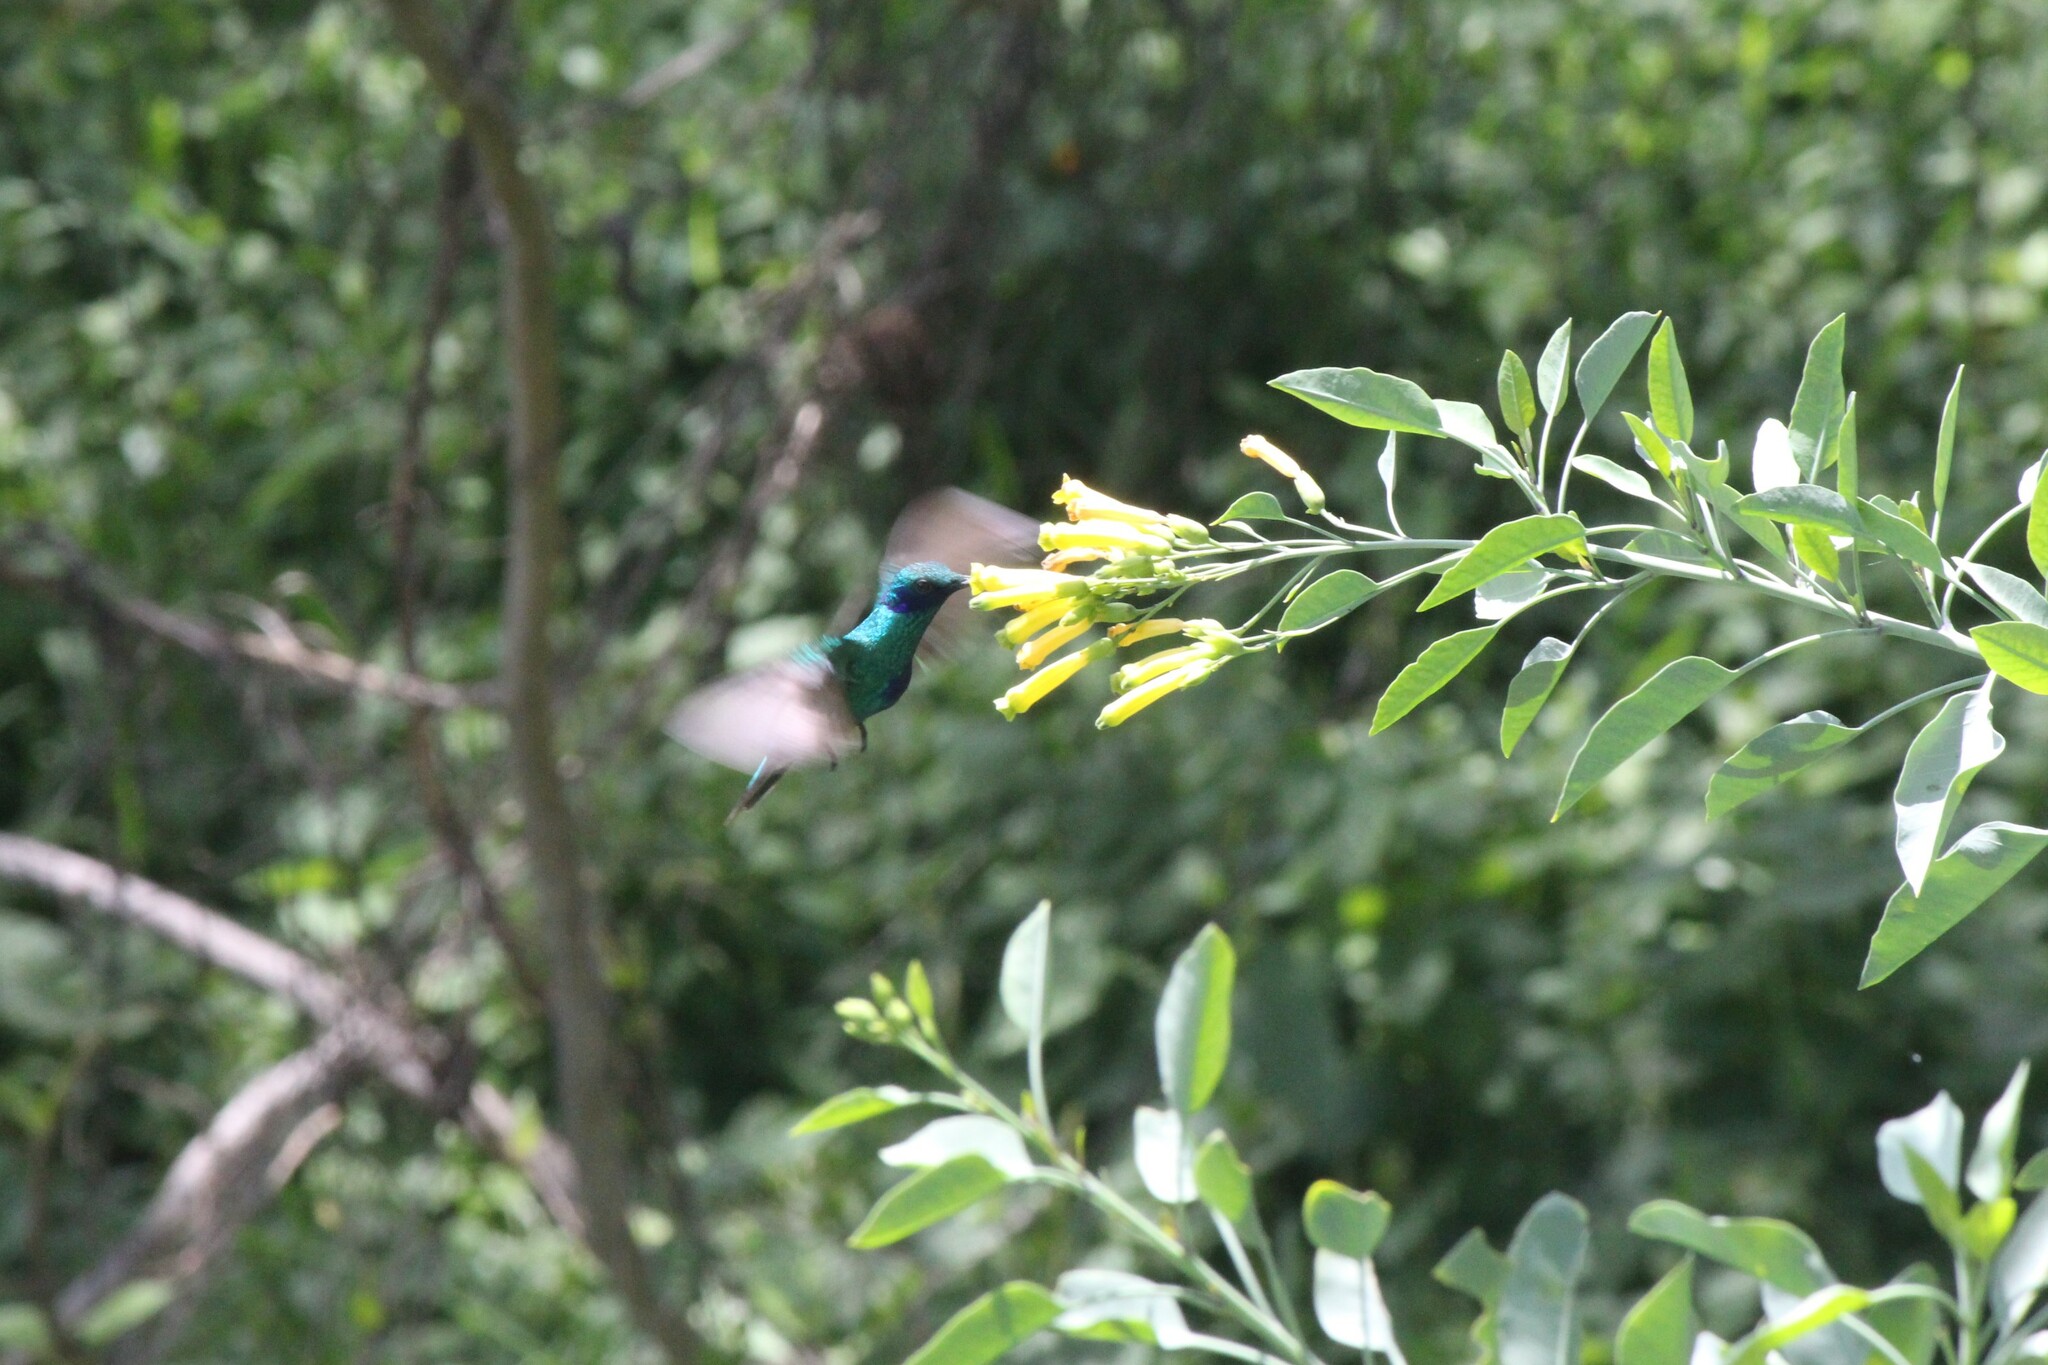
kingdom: Animalia
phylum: Chordata
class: Aves
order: Apodiformes
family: Trochilidae
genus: Colibri
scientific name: Colibri coruscans
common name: Sparkling violetear
